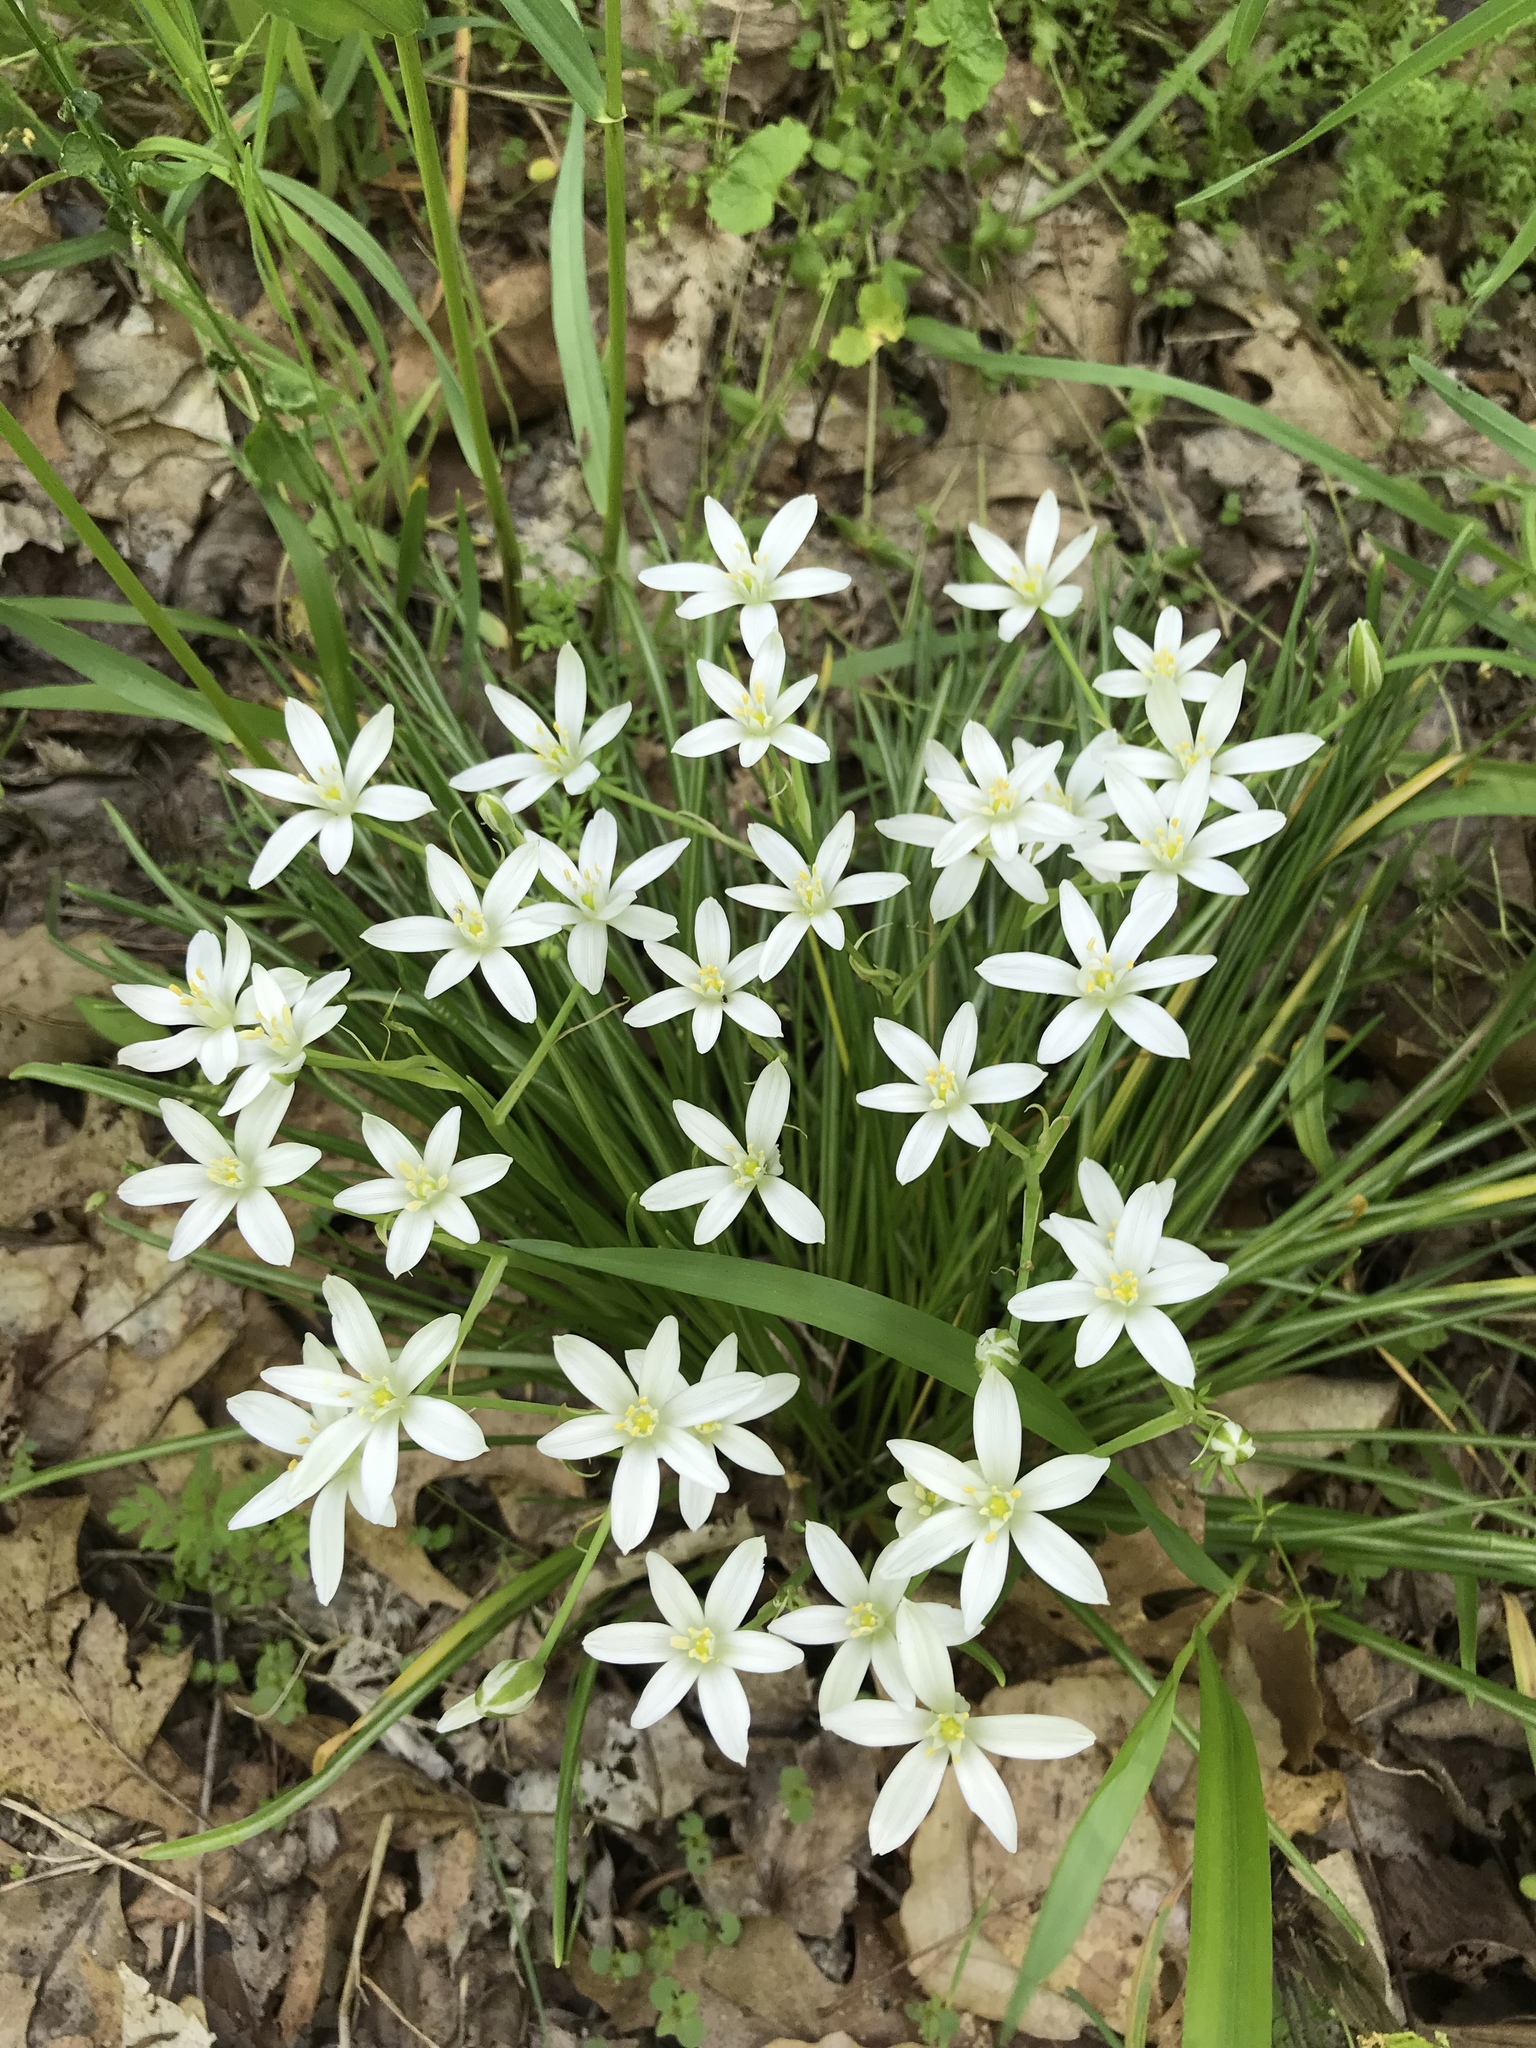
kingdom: Plantae
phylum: Tracheophyta
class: Liliopsida
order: Asparagales
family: Asparagaceae
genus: Ornithogalum
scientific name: Ornithogalum umbellatum
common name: Garden star-of-bethlehem
